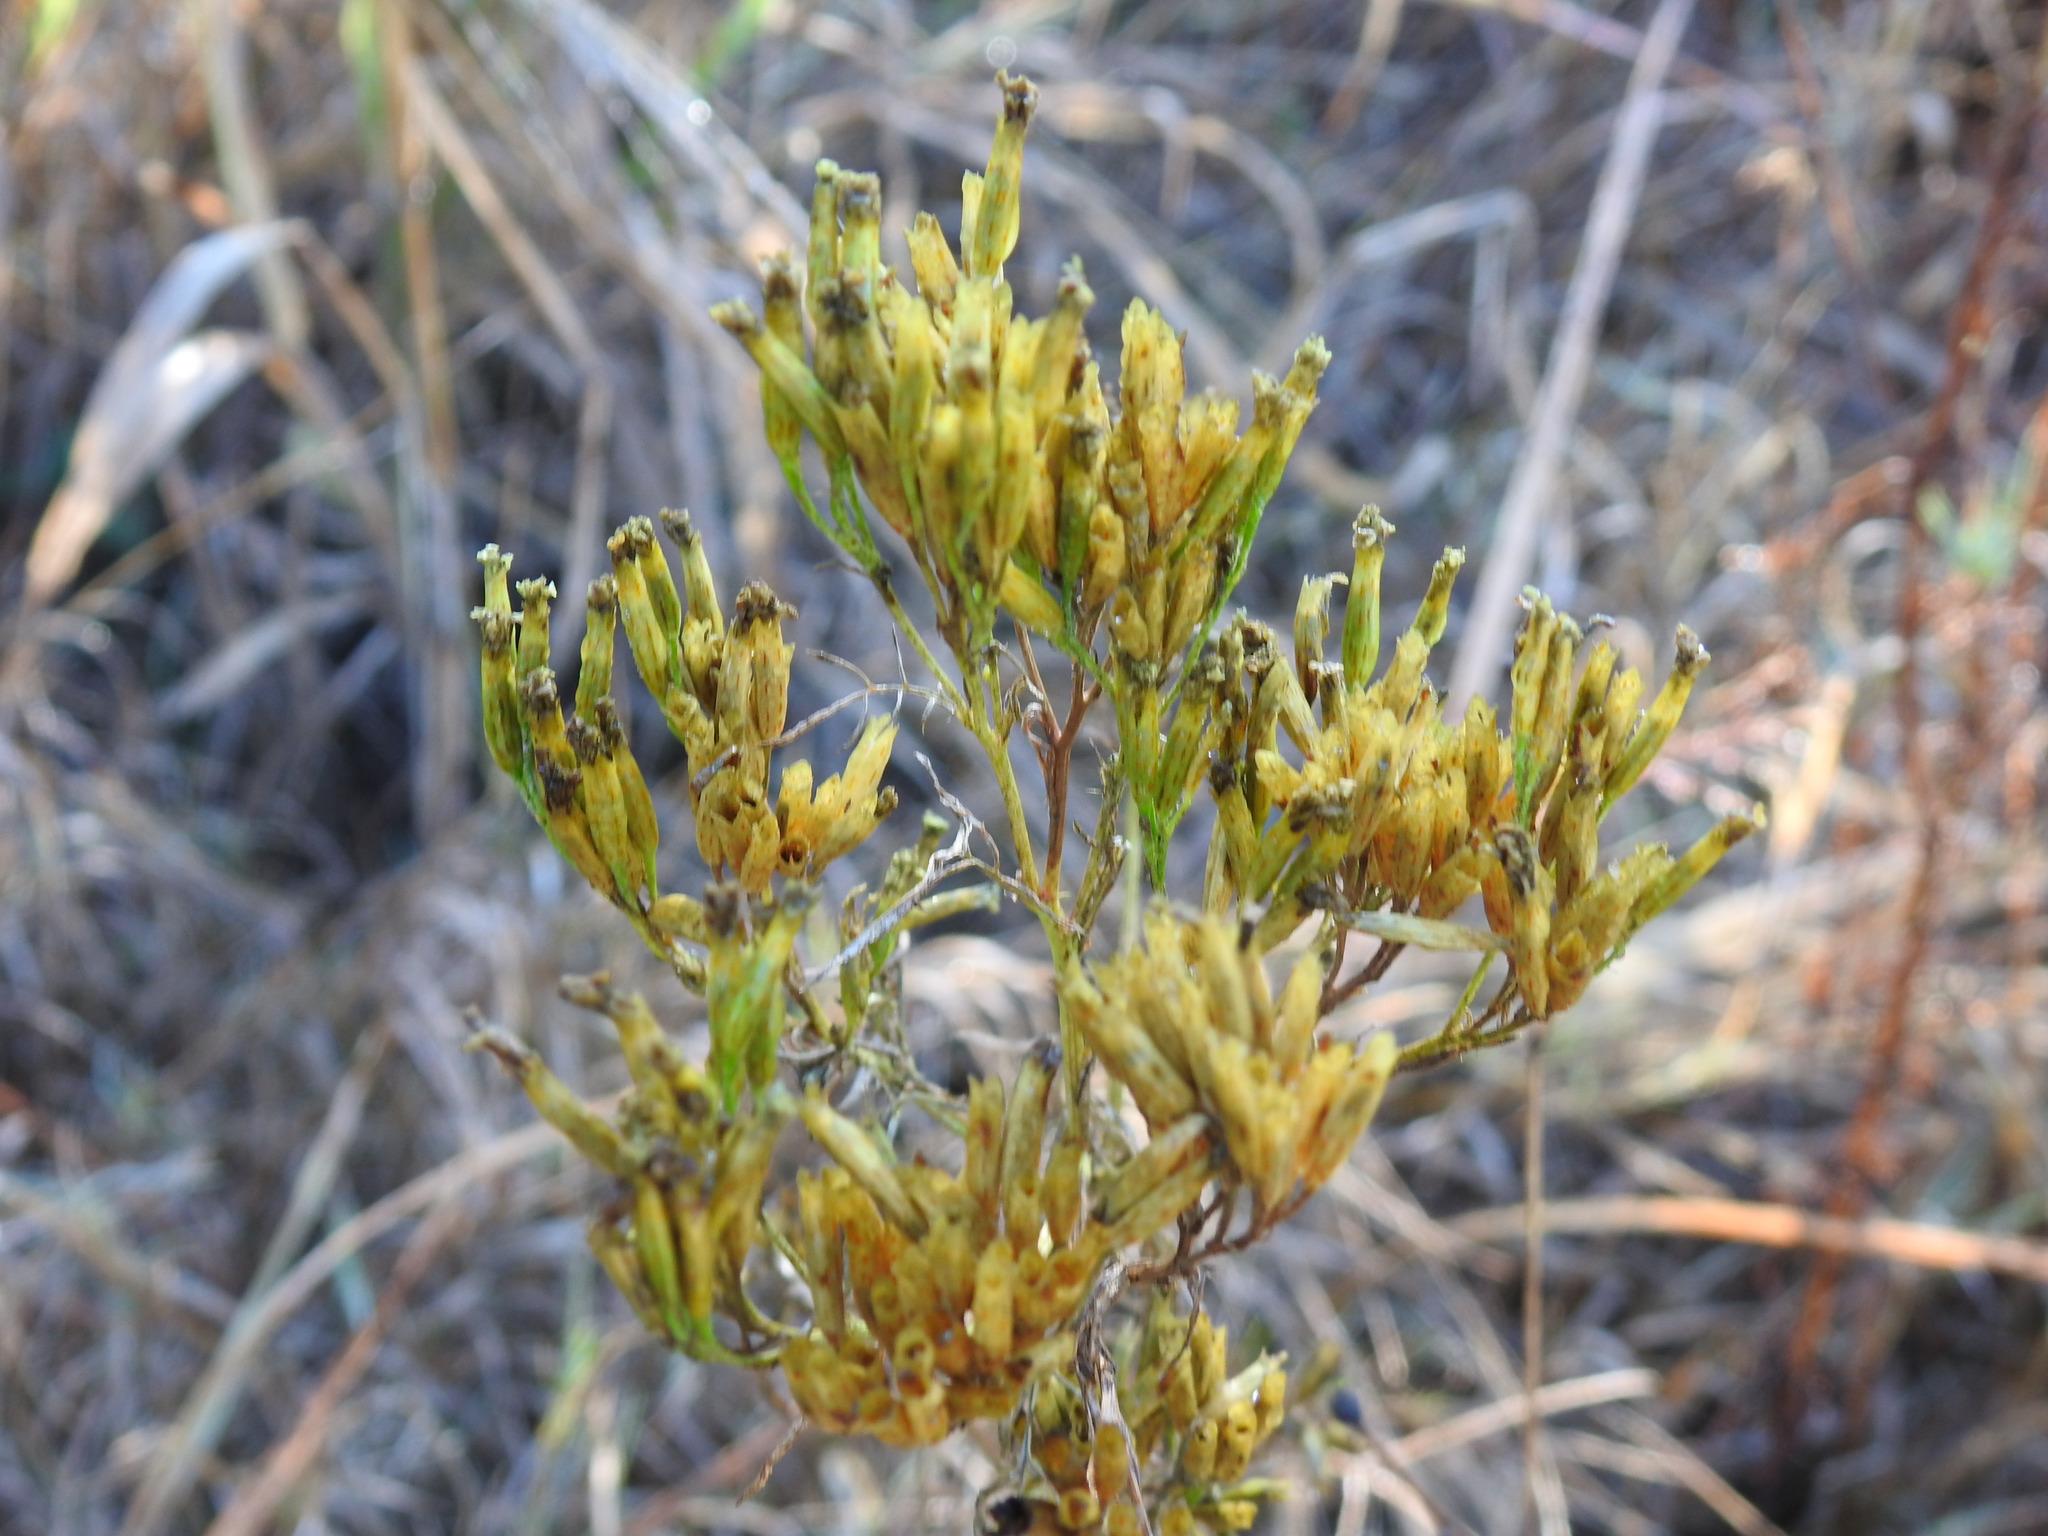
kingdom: Plantae
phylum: Tracheophyta
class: Magnoliopsida
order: Asterales
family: Asteraceae
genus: Tagetes
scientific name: Tagetes minuta
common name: Muster john henry
